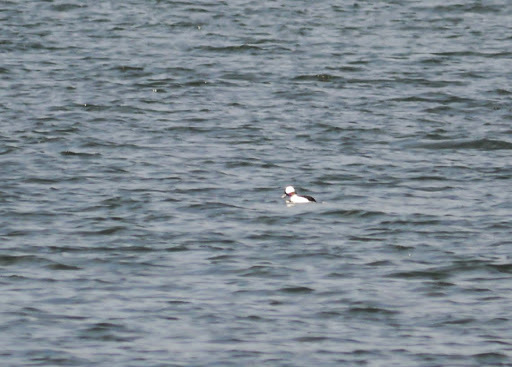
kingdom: Animalia
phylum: Chordata
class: Aves
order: Anseriformes
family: Anatidae
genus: Bucephala
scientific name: Bucephala albeola
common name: Bufflehead
